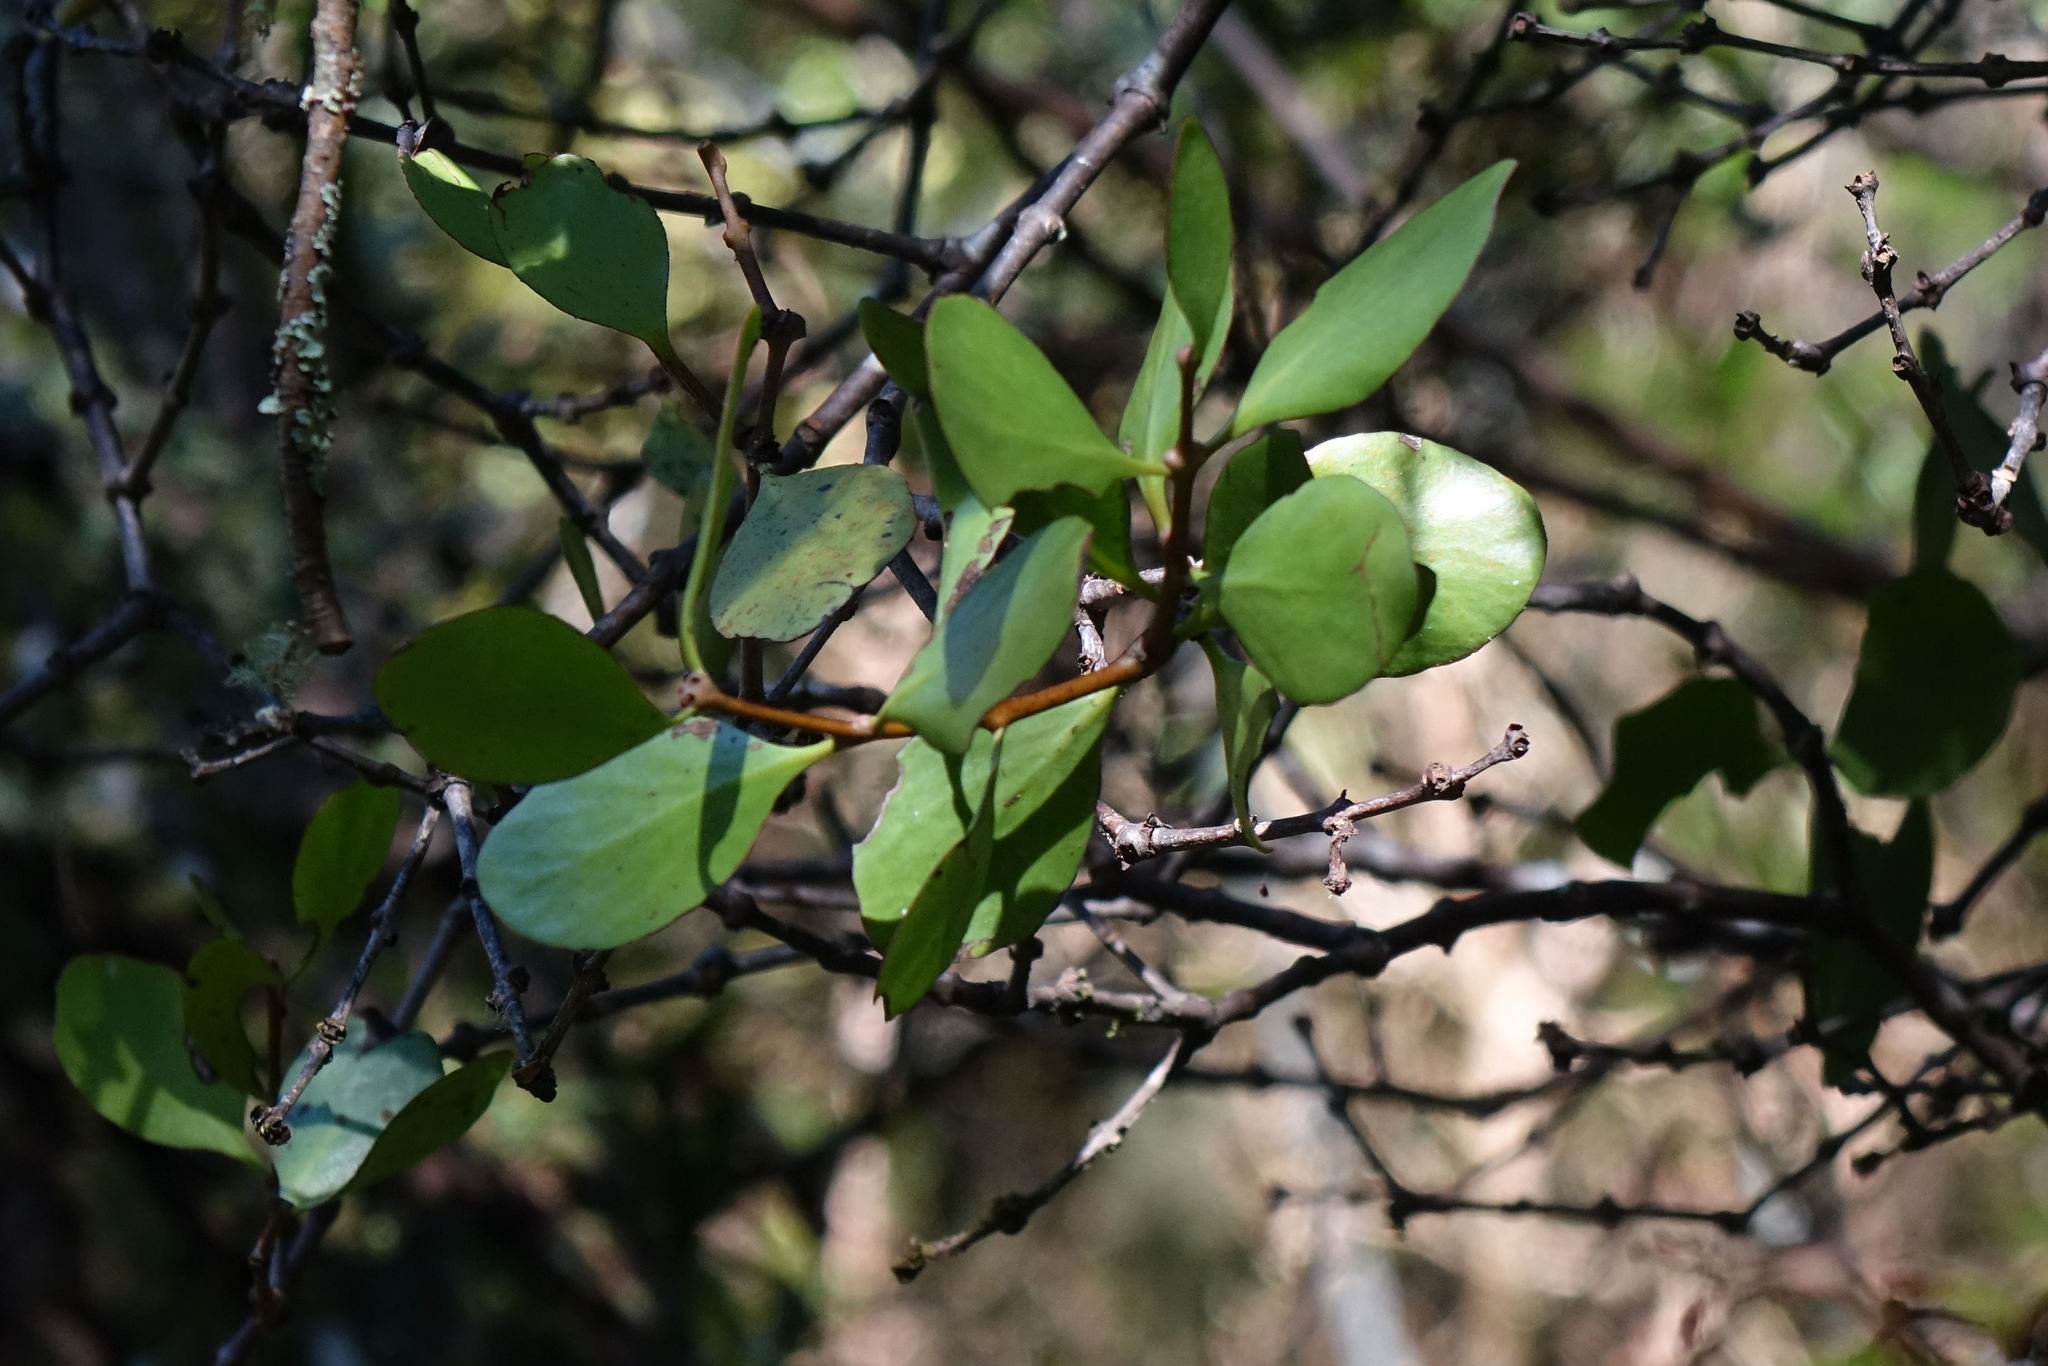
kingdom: Plantae
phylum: Tracheophyta
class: Magnoliopsida
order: Santalales
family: Loranthaceae
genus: Peraxilla
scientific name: Peraxilla colensoi
